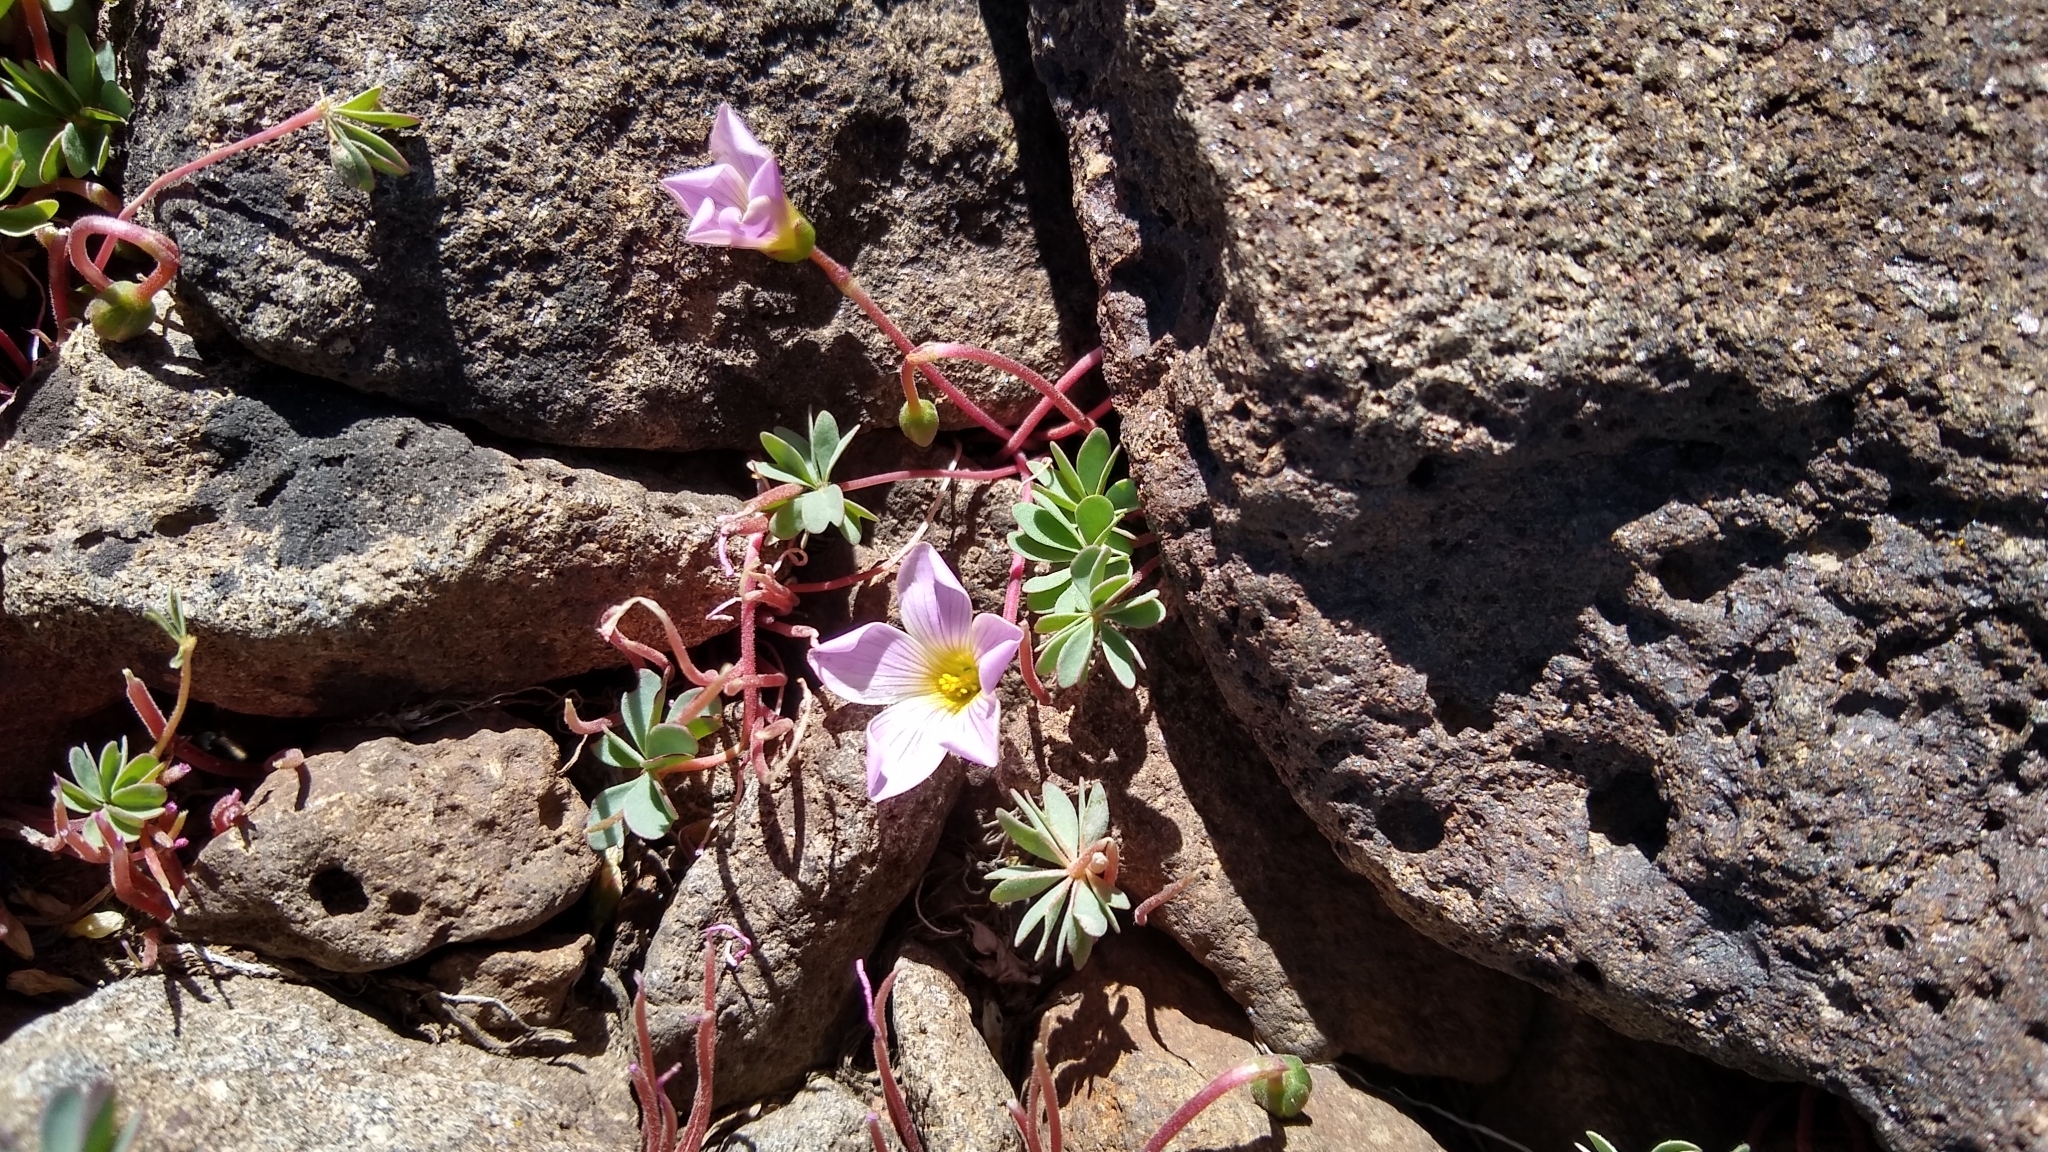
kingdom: Plantae
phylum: Tracheophyta
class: Magnoliopsida
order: Oxalidales
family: Oxalidaceae
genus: Oxalis
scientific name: Oxalis enneaphylla
